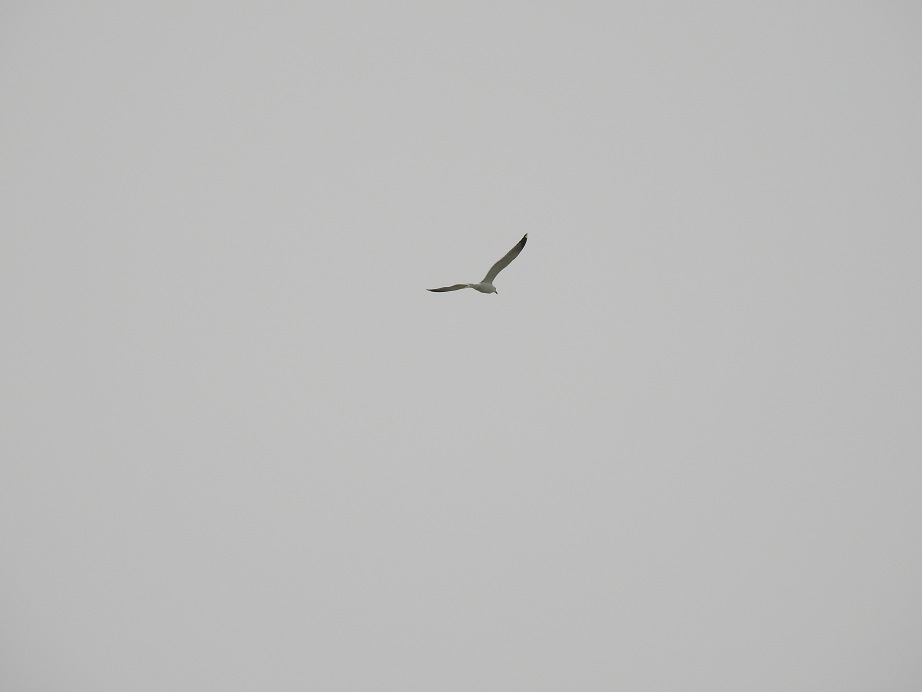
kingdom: Animalia
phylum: Chordata
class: Aves
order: Charadriiformes
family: Laridae
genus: Larus
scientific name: Larus michahellis
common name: Yellow-legged gull
